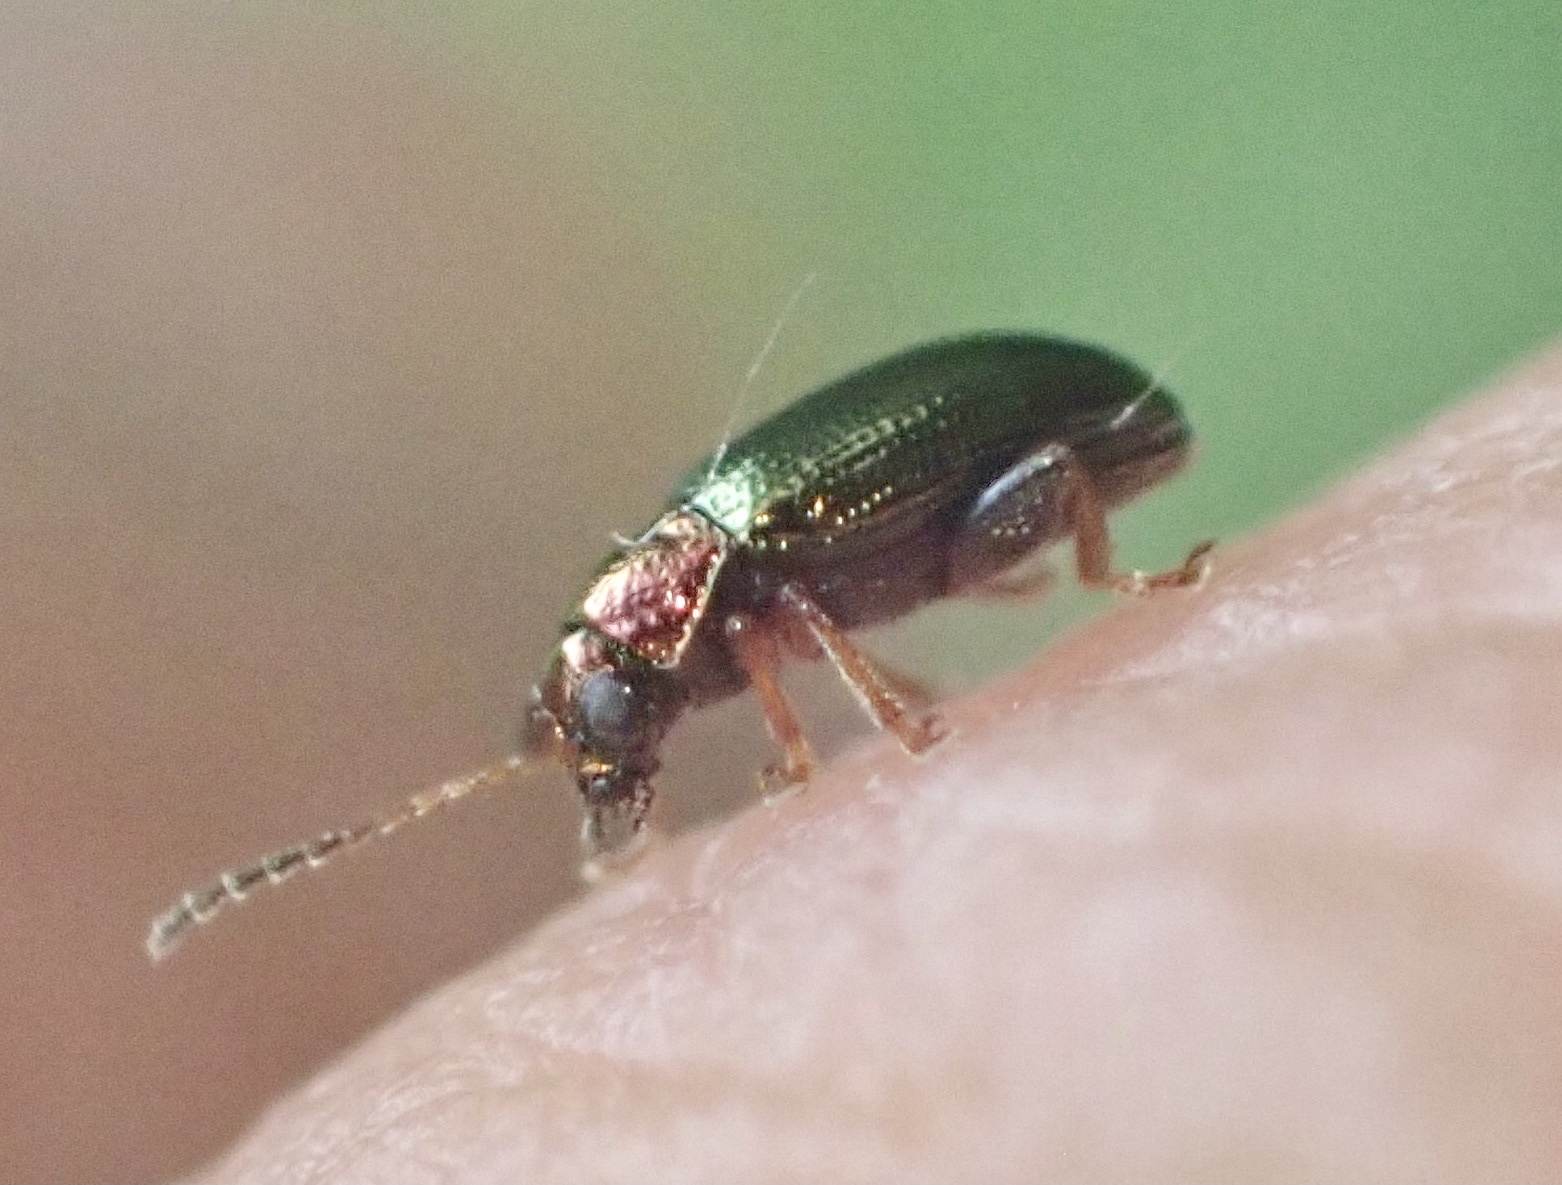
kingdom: Animalia
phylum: Arthropoda
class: Insecta
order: Coleoptera
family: Chrysomelidae
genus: Crepidodera
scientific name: Crepidodera aurata
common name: Willow flea beetle
